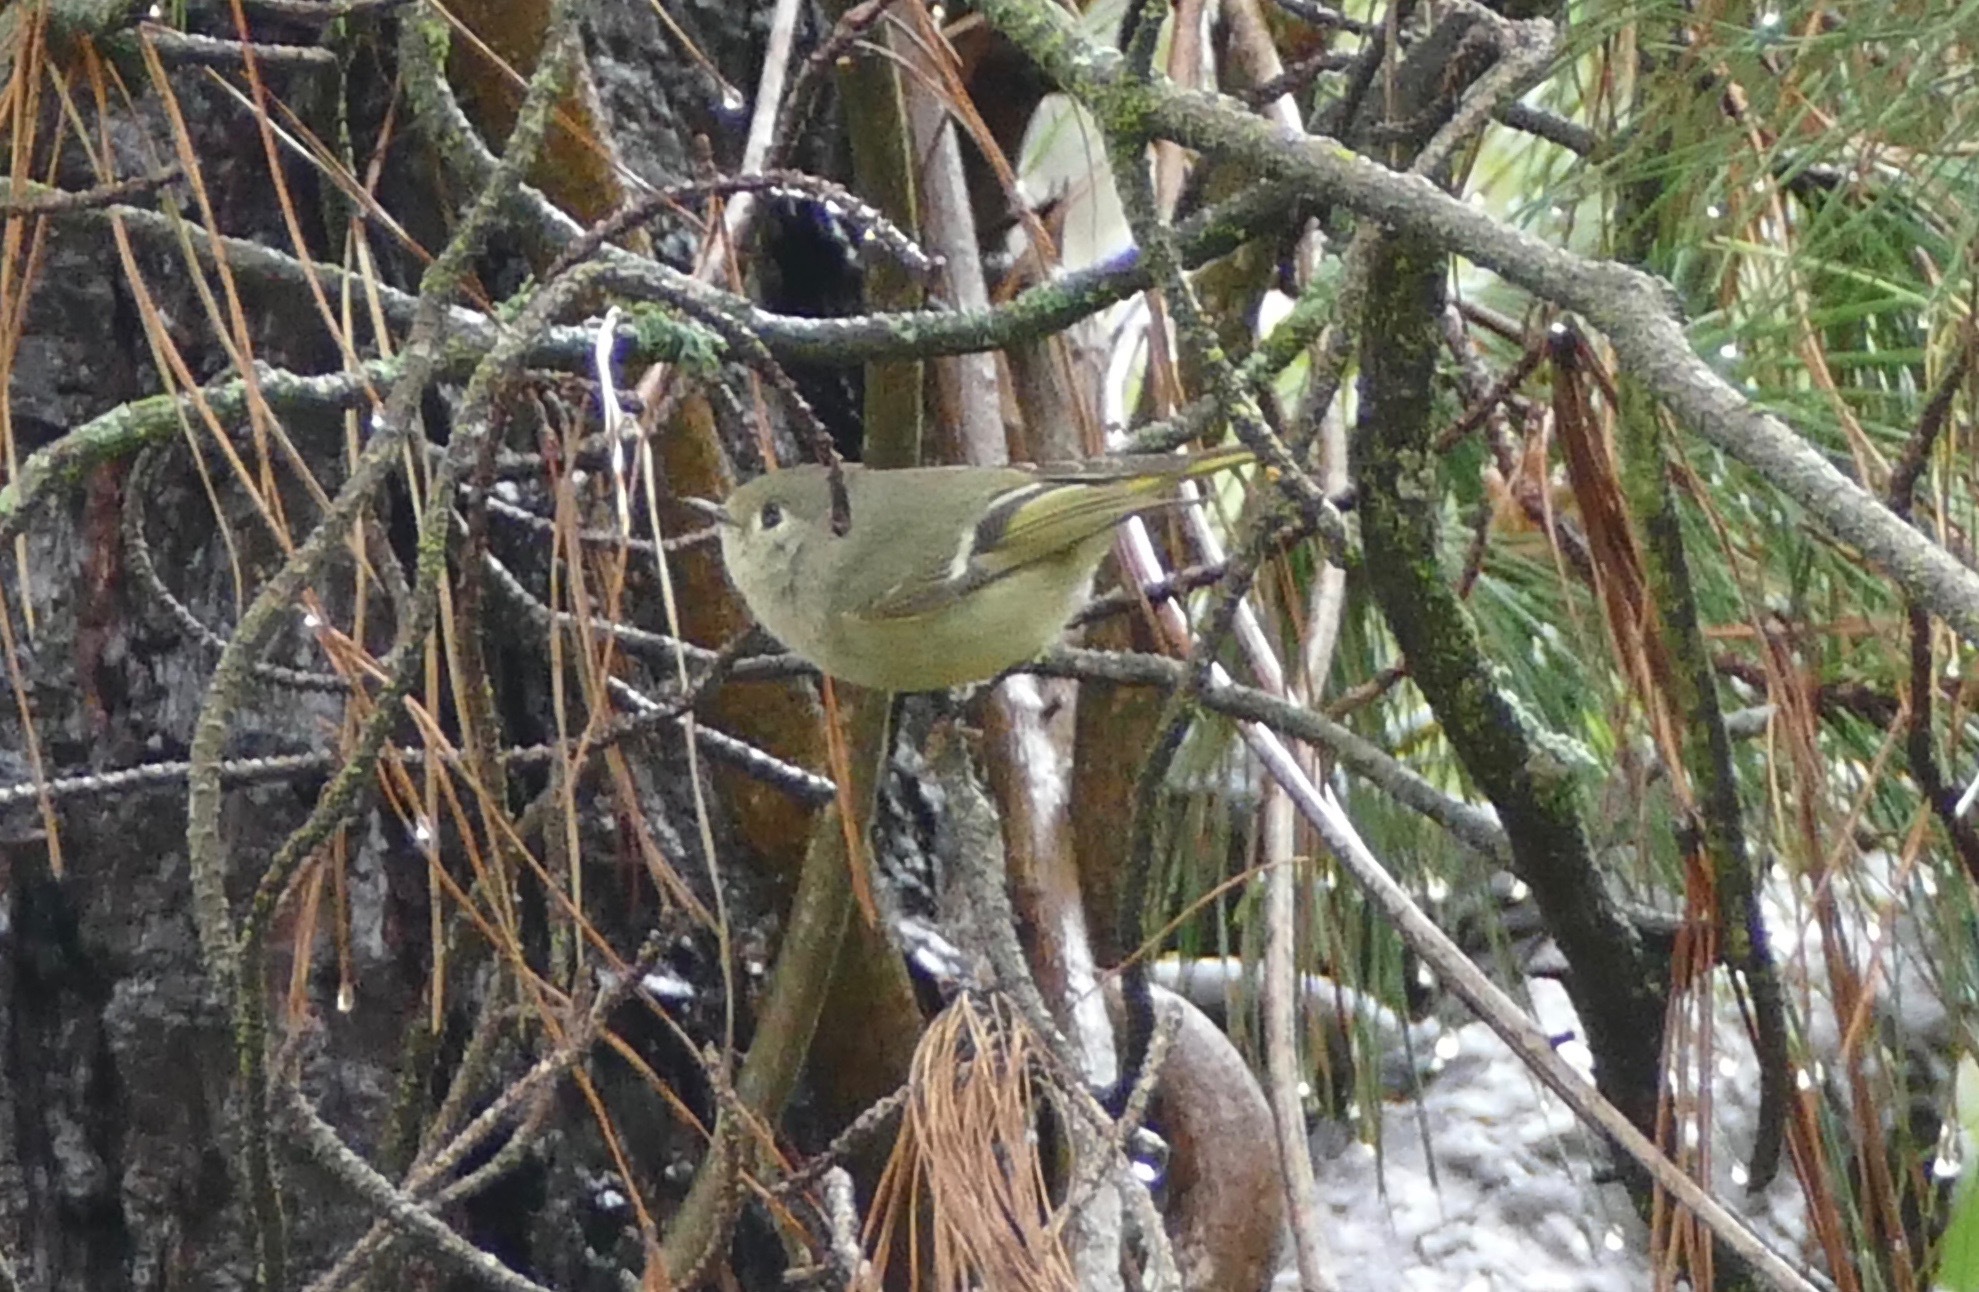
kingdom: Animalia
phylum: Chordata
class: Aves
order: Passeriformes
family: Regulidae
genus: Regulus
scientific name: Regulus calendula
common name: Ruby-crowned kinglet
